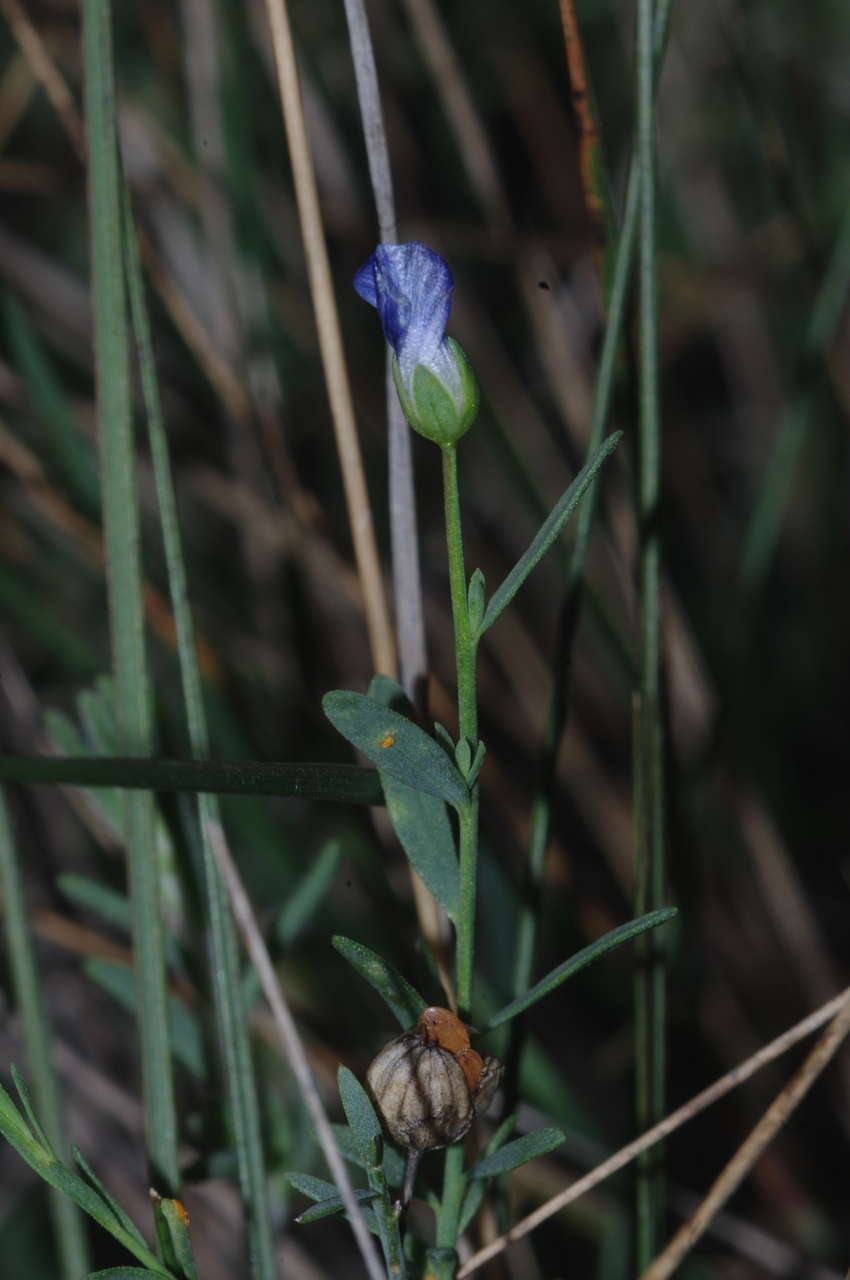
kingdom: Plantae
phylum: Tracheophyta
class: Magnoliopsida
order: Malpighiales
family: Linaceae
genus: Linum
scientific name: Linum marginale
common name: Wild flax
